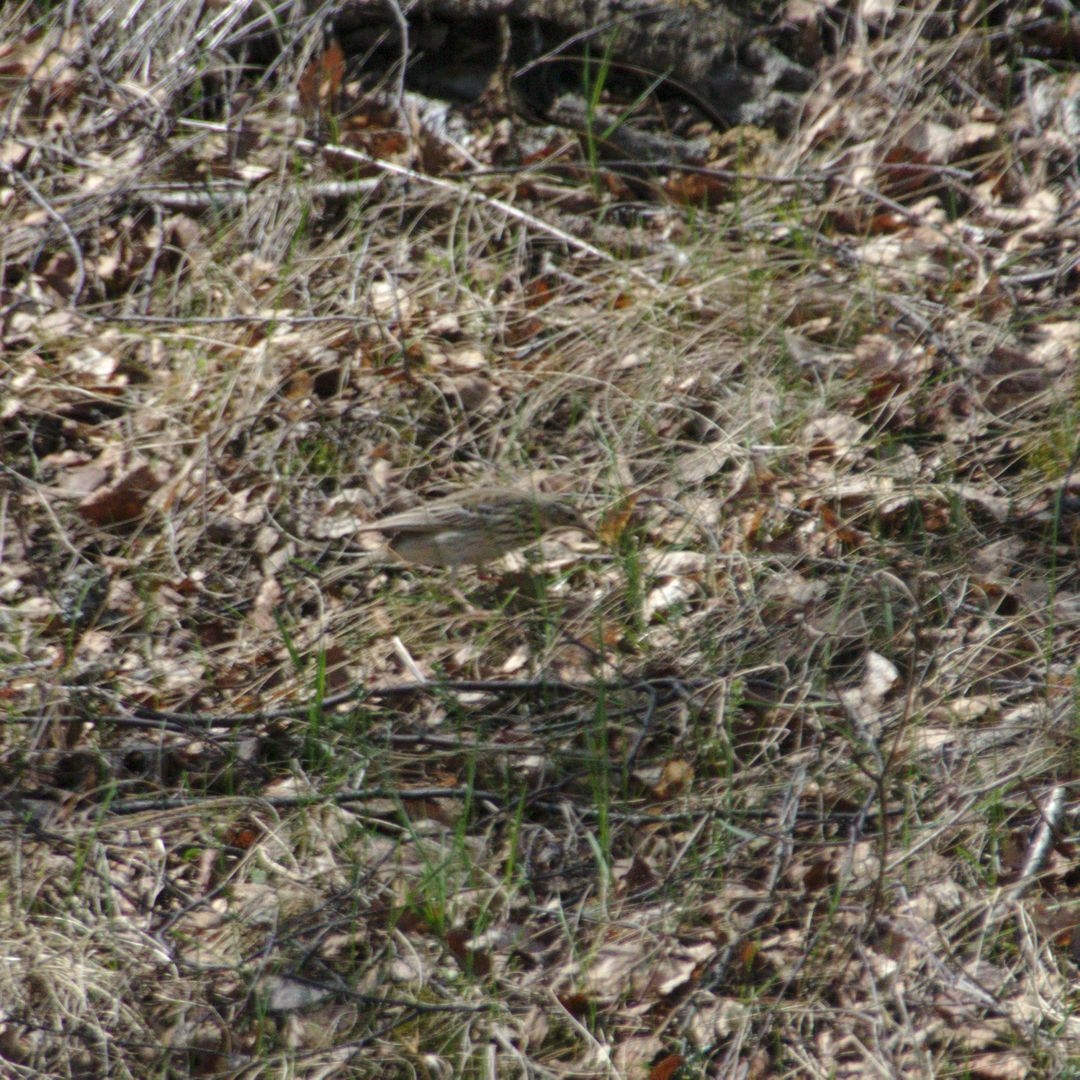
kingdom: Animalia
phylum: Chordata
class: Aves
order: Passeriformes
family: Motacillidae
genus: Anthus
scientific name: Anthus trivialis
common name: Tree pipit
